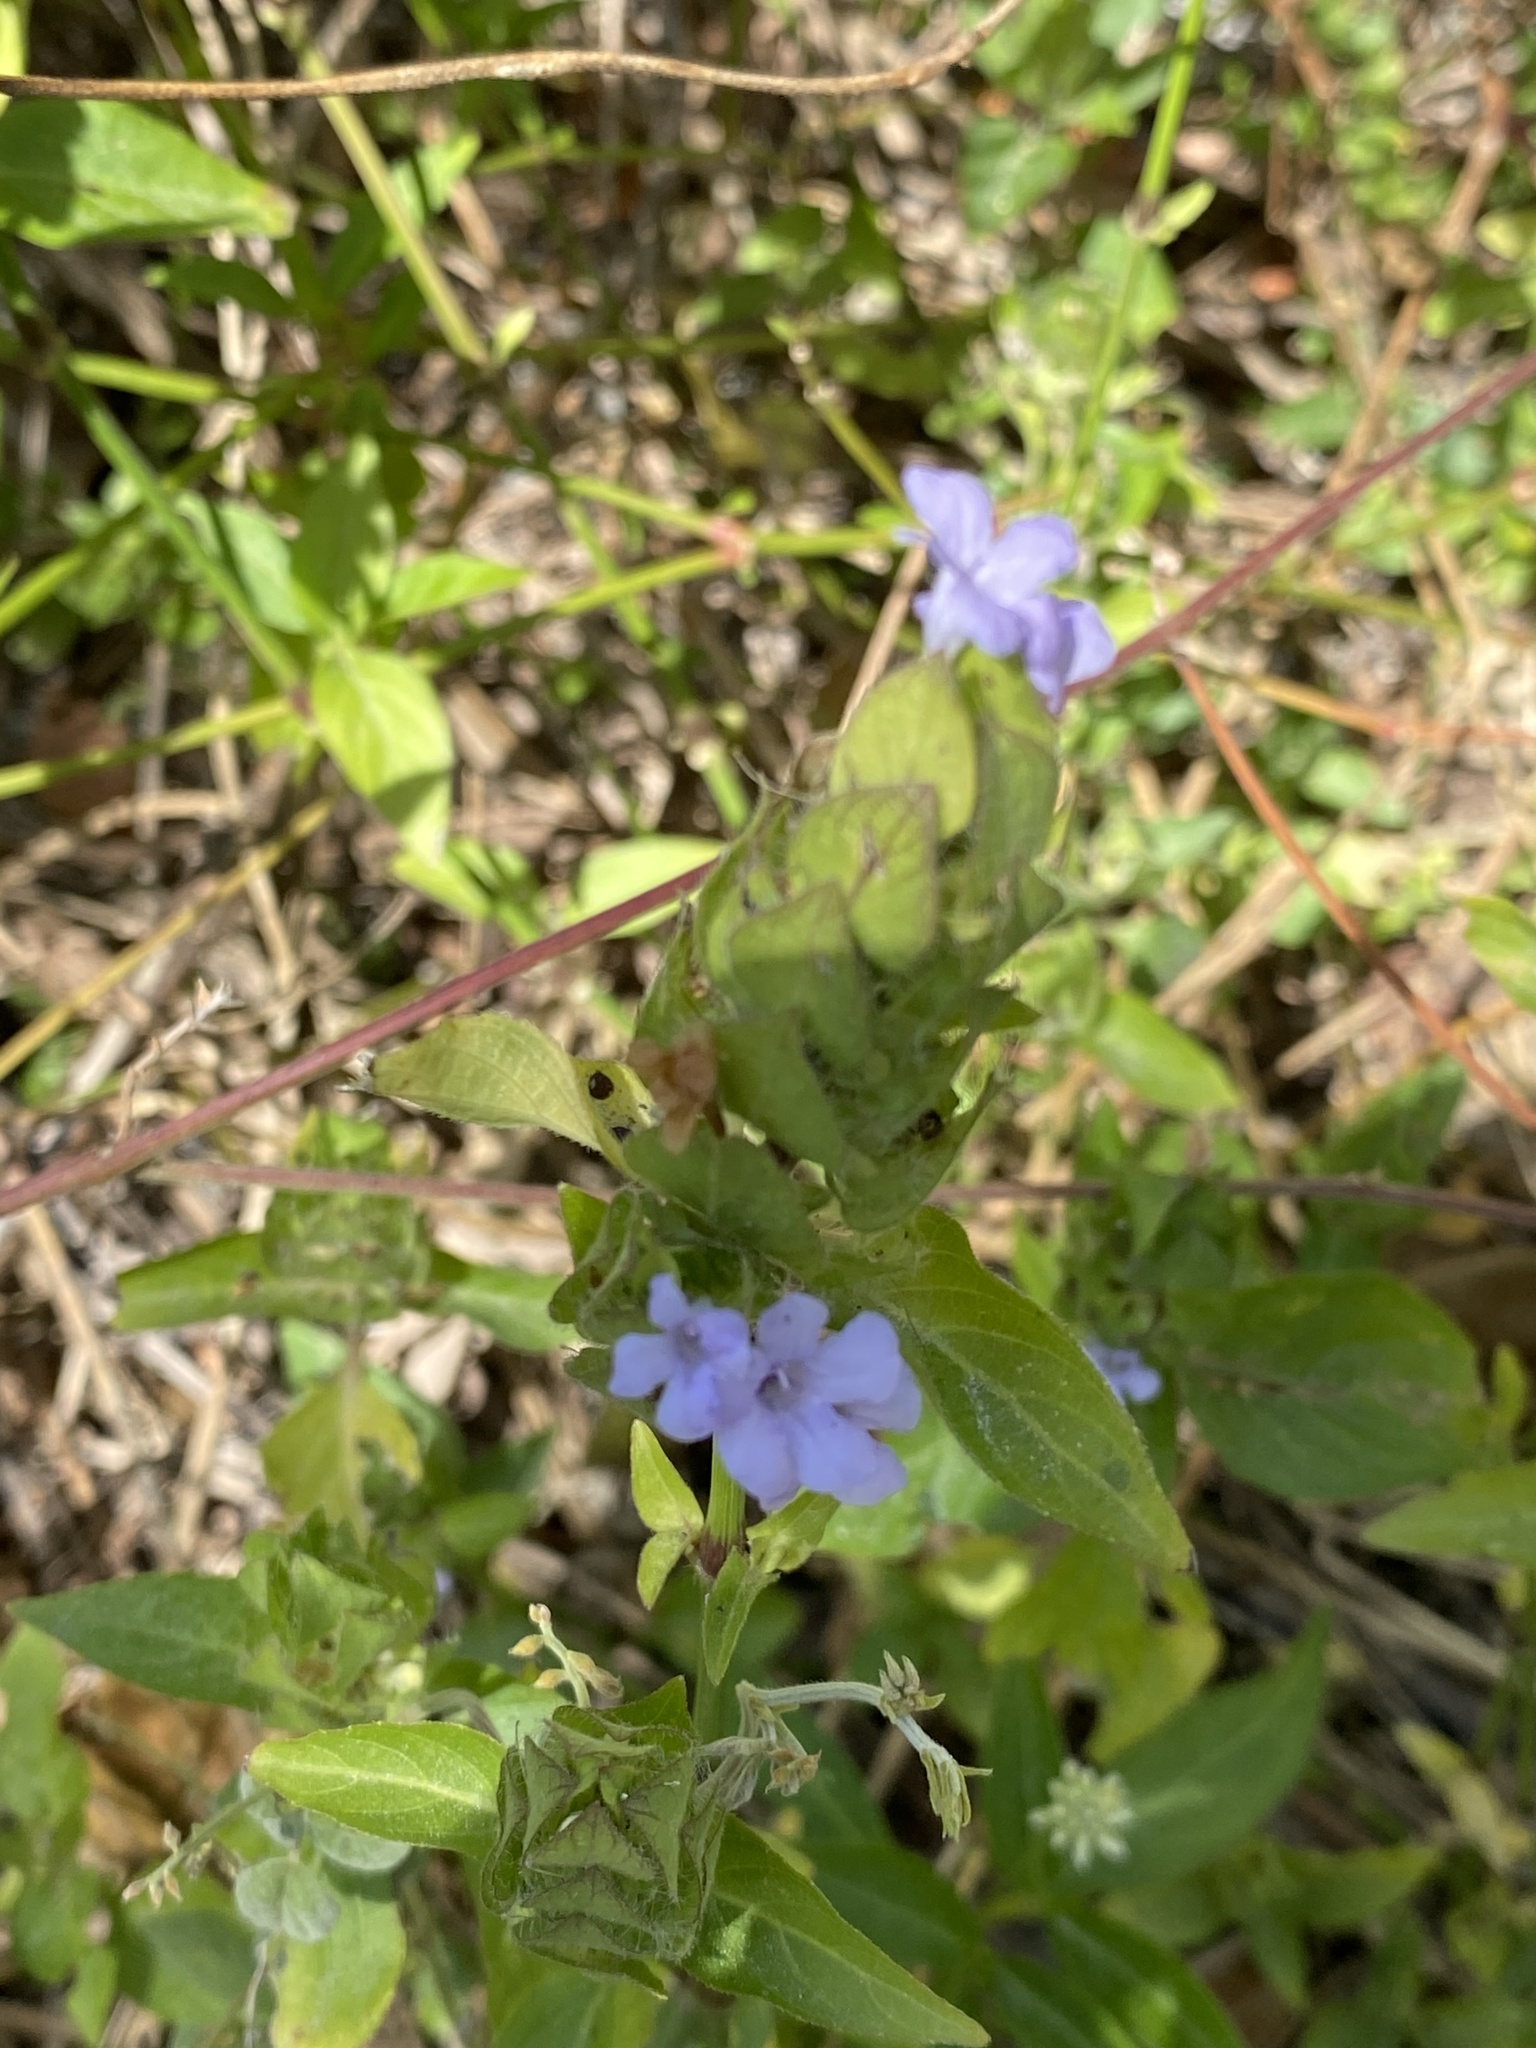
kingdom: Plantae
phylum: Tracheophyta
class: Magnoliopsida
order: Lamiales
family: Acanthaceae
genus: Ruellia
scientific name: Ruellia blechum
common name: Browne's blechum
